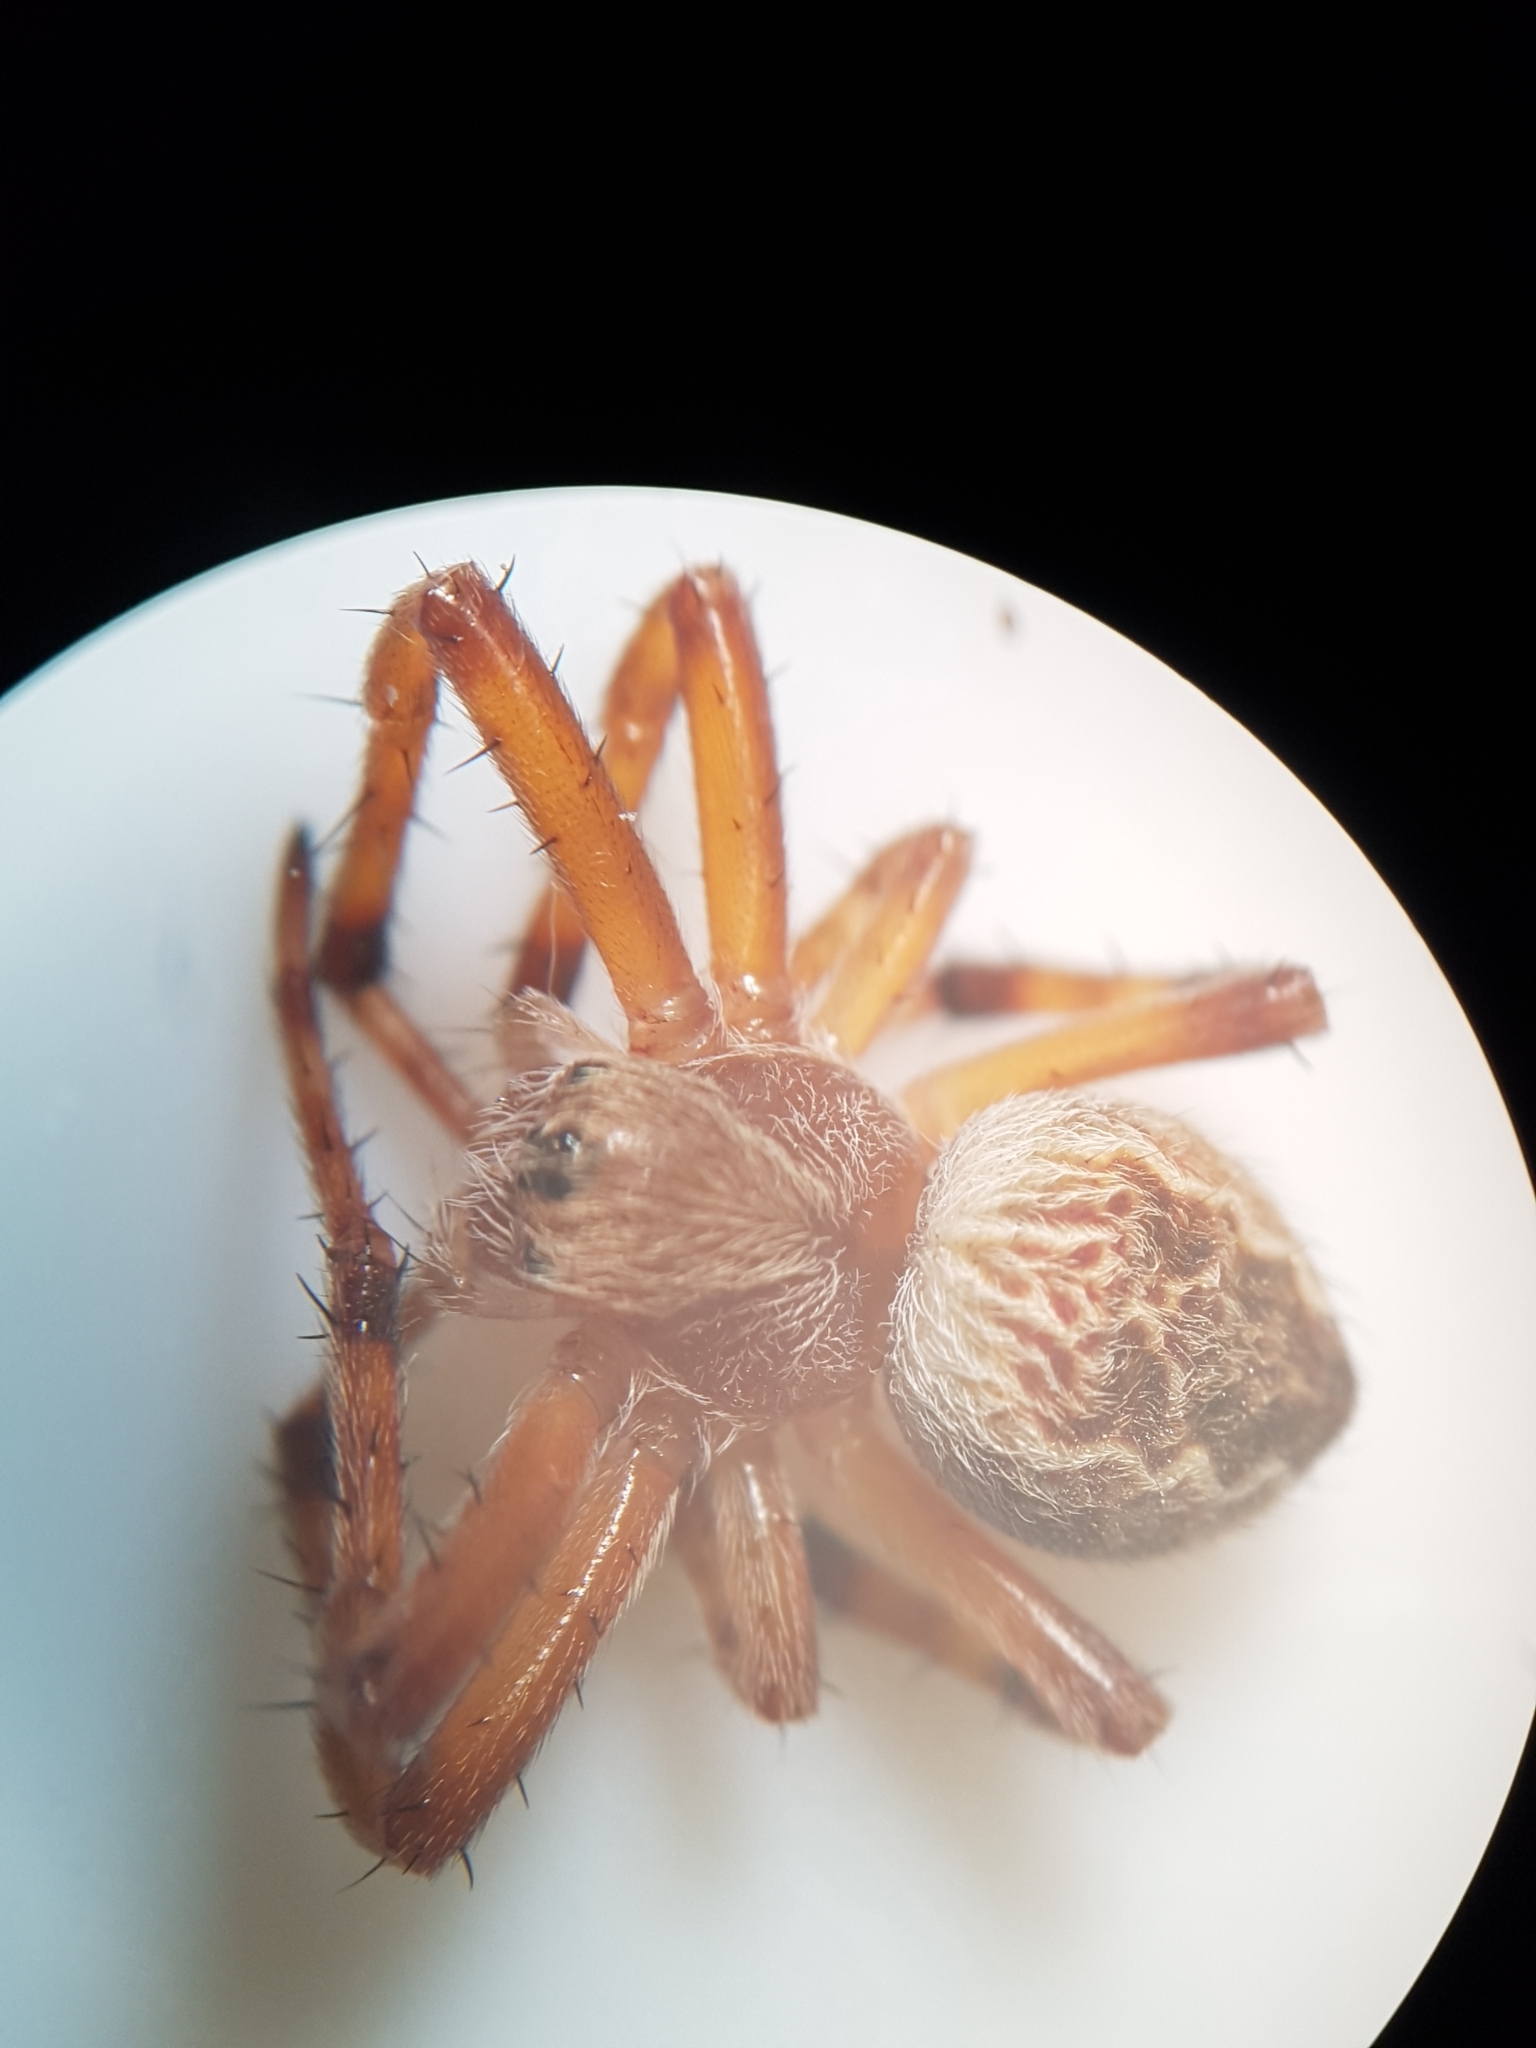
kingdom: Animalia
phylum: Arthropoda
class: Arachnida
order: Araneae
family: Araneidae
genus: Salsa
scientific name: Salsa fuliginata
